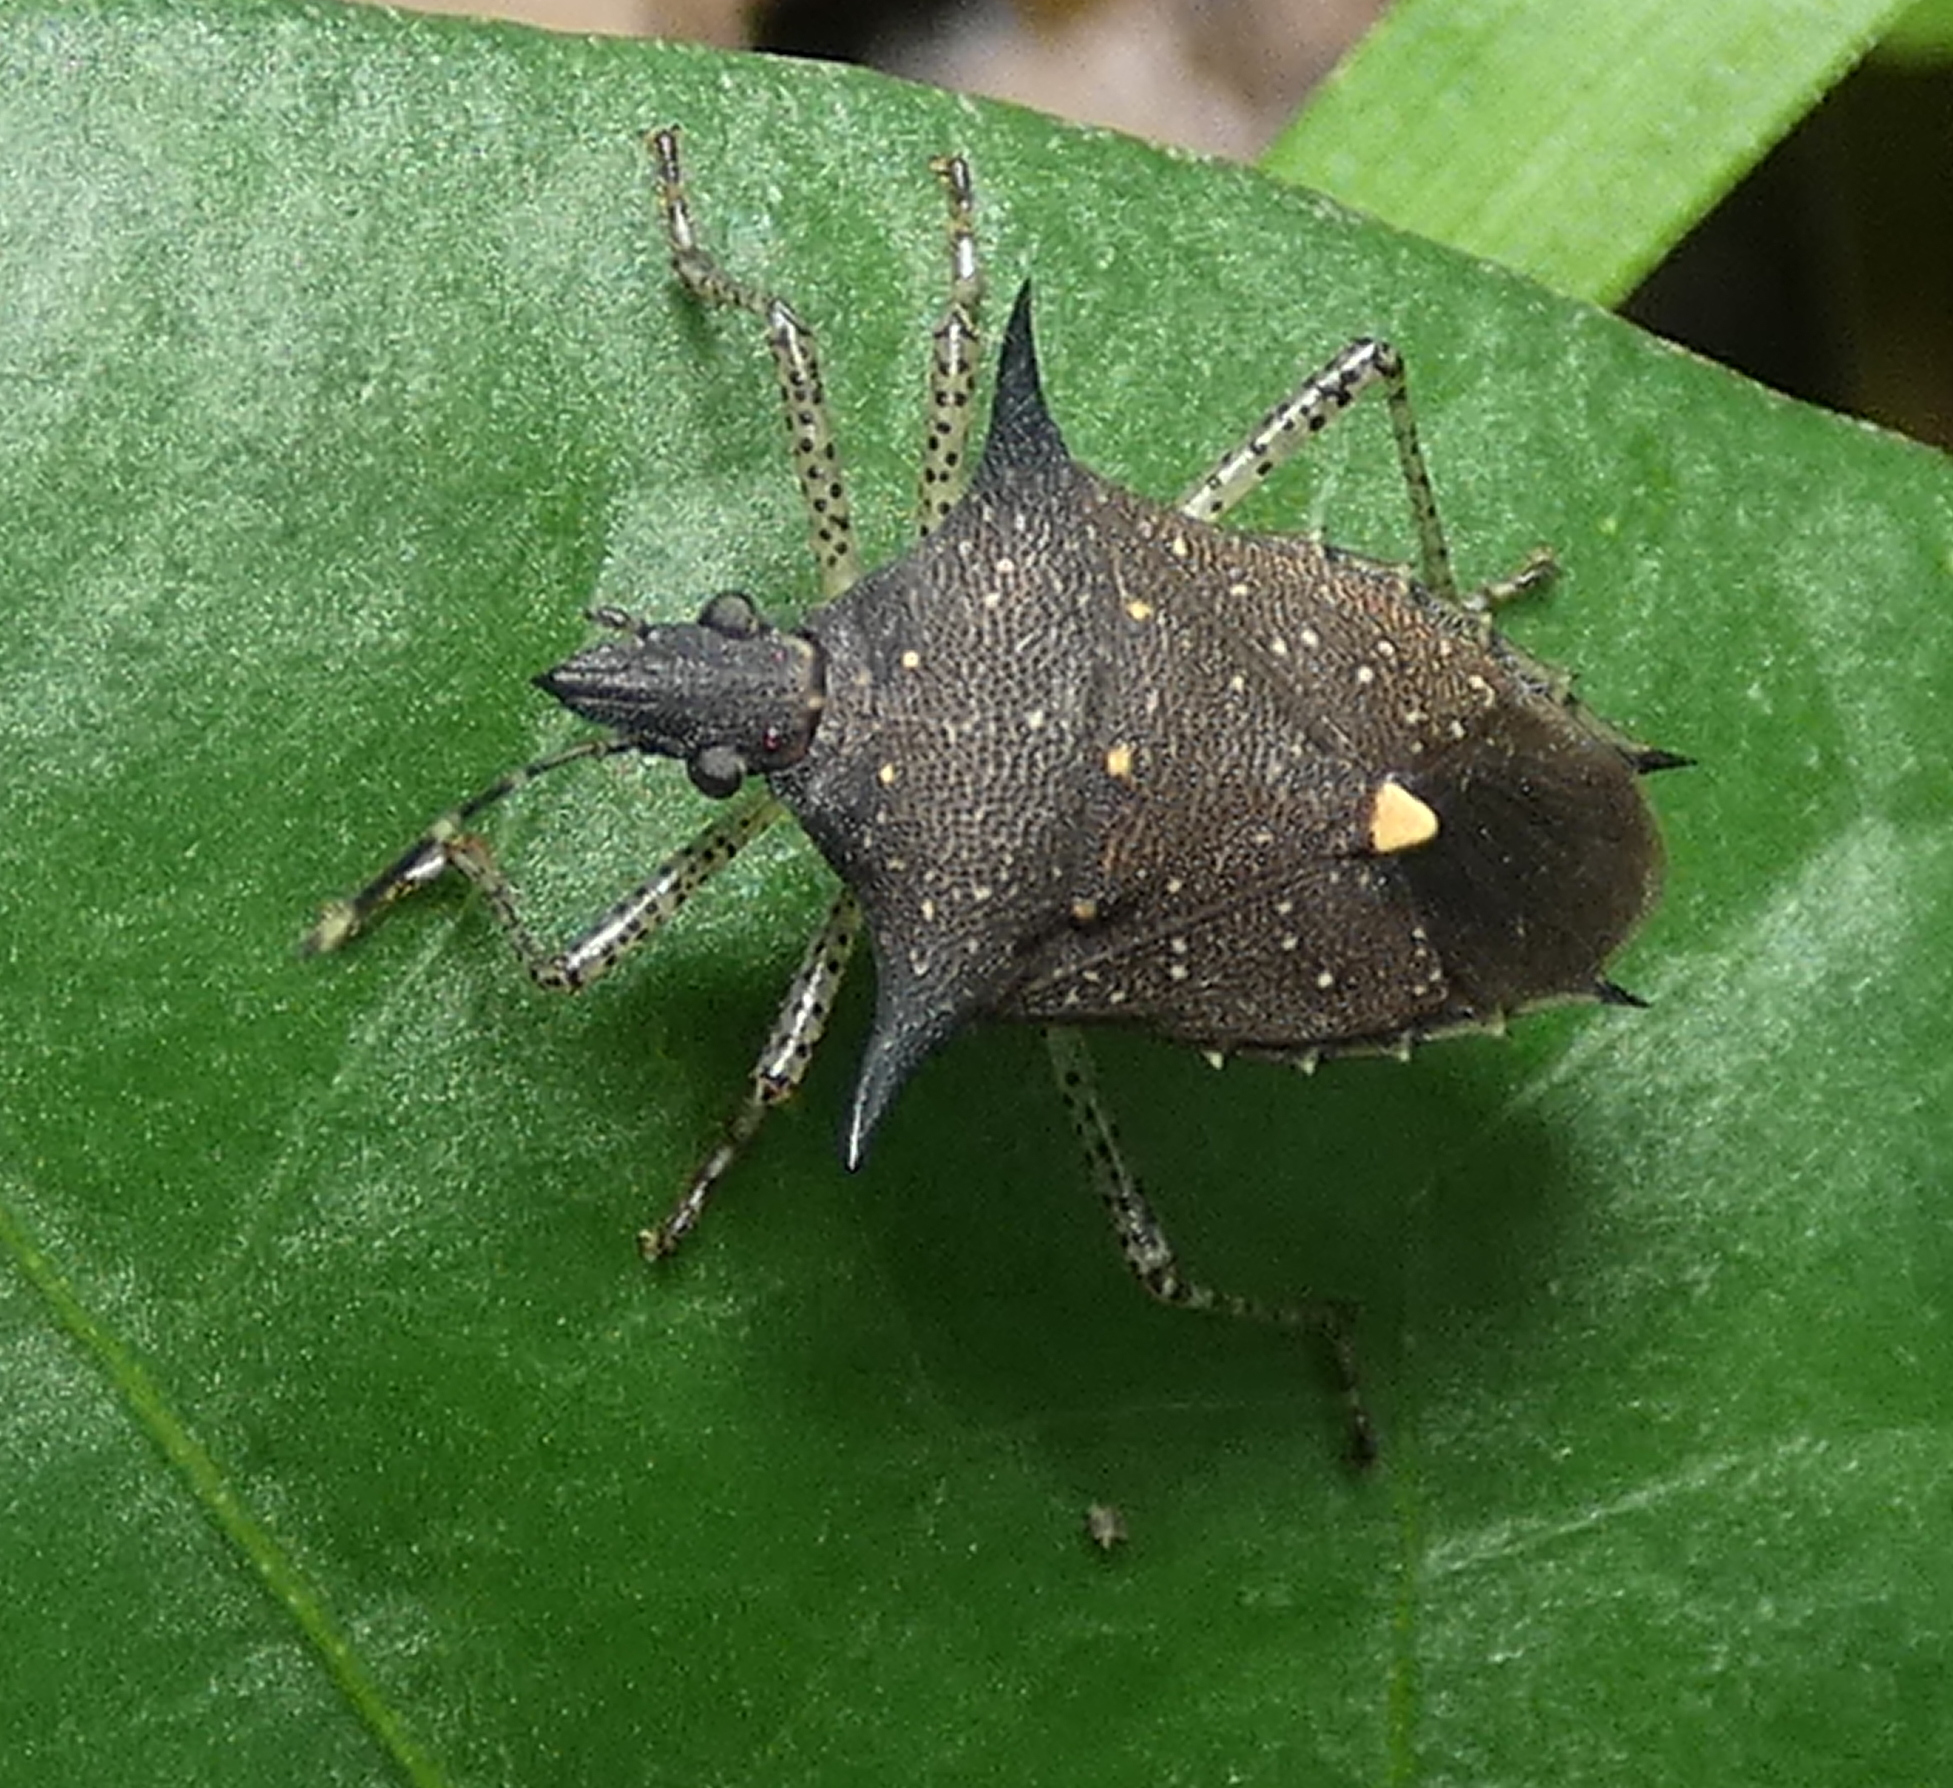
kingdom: Animalia
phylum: Arthropoda
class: Insecta
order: Hemiptera
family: Pentatomidae
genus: Proxys
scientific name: Proxys albopunctulatus
